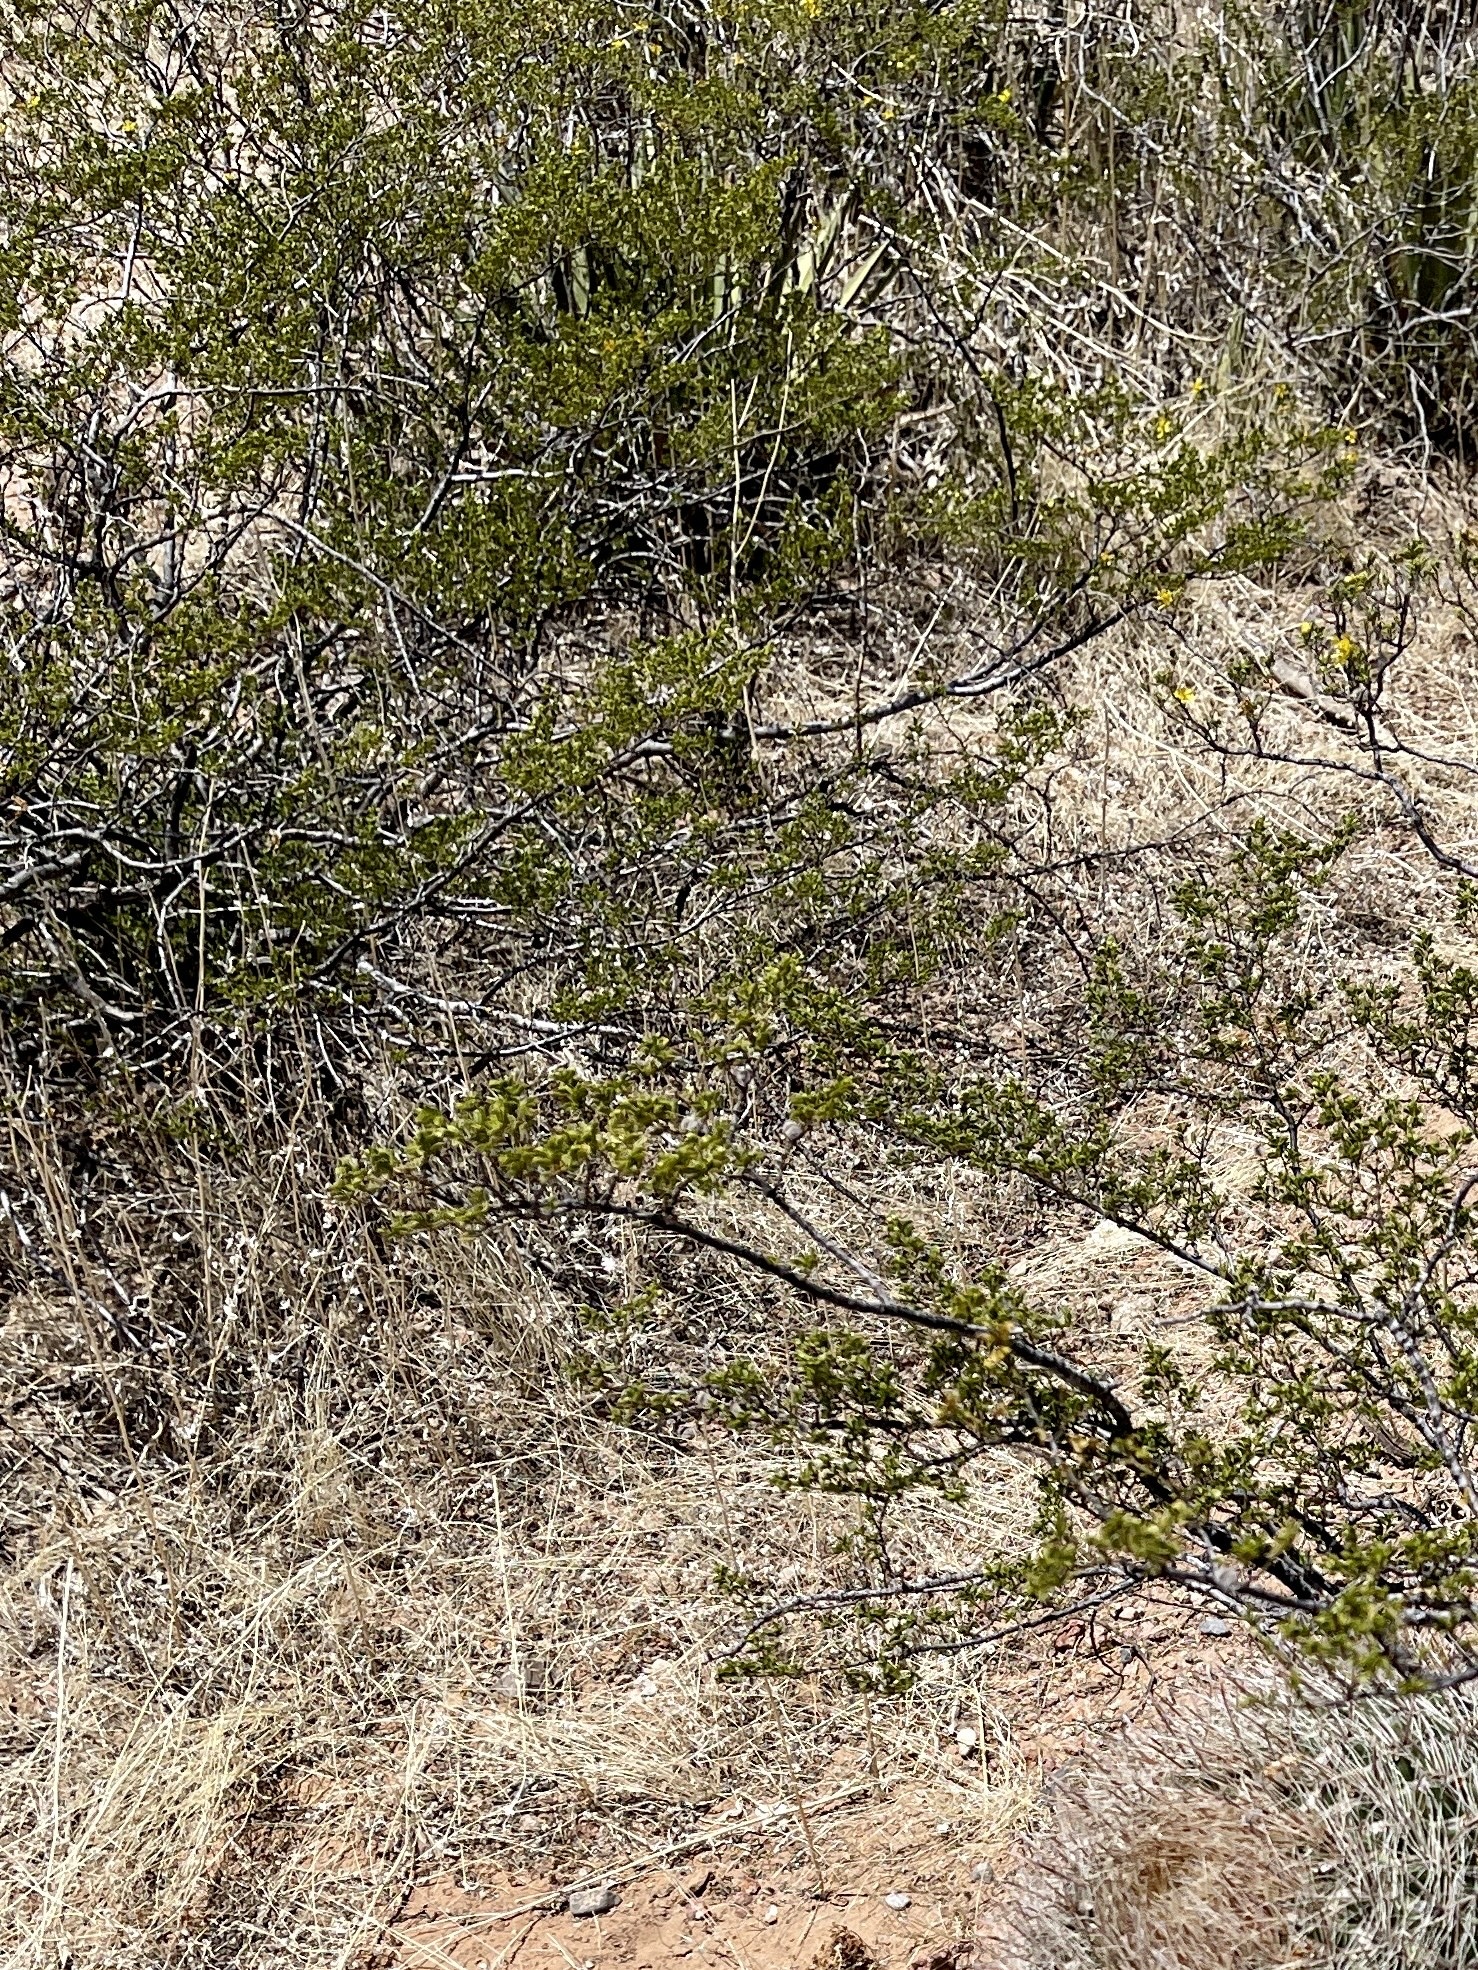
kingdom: Plantae
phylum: Tracheophyta
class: Magnoliopsida
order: Zygophyllales
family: Zygophyllaceae
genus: Larrea
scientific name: Larrea tridentata
